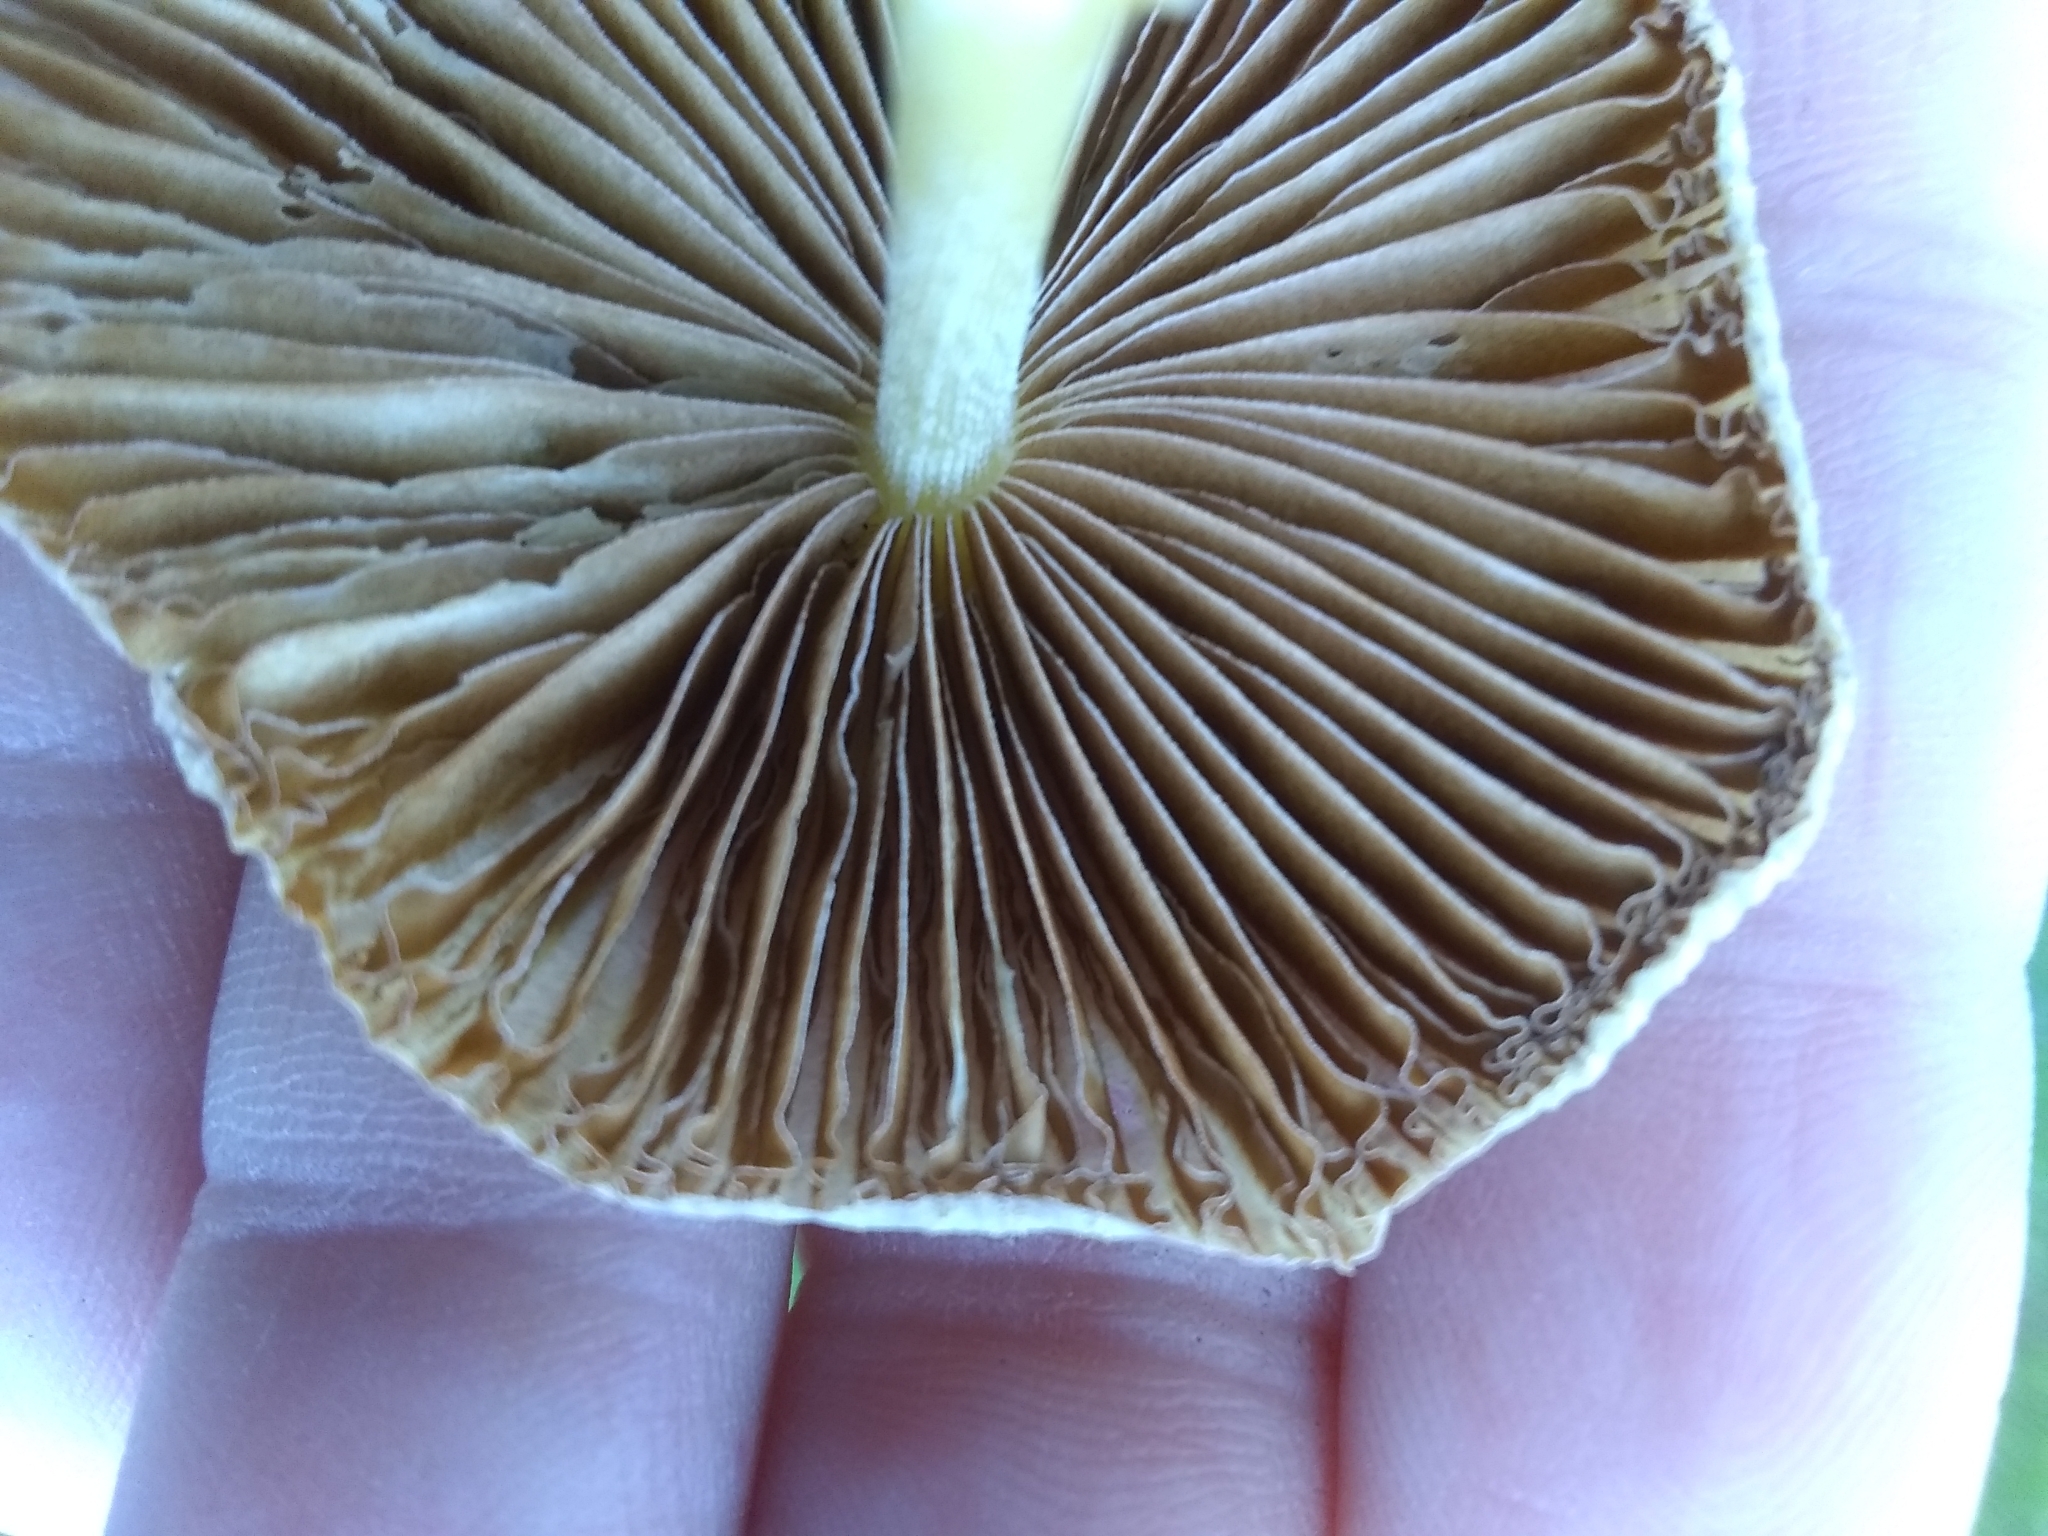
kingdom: Fungi
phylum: Basidiomycota
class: Agaricomycetes
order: Agaricales
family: Bolbitiaceae
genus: Bolbitius
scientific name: Bolbitius titubans
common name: Yellow fieldcap
